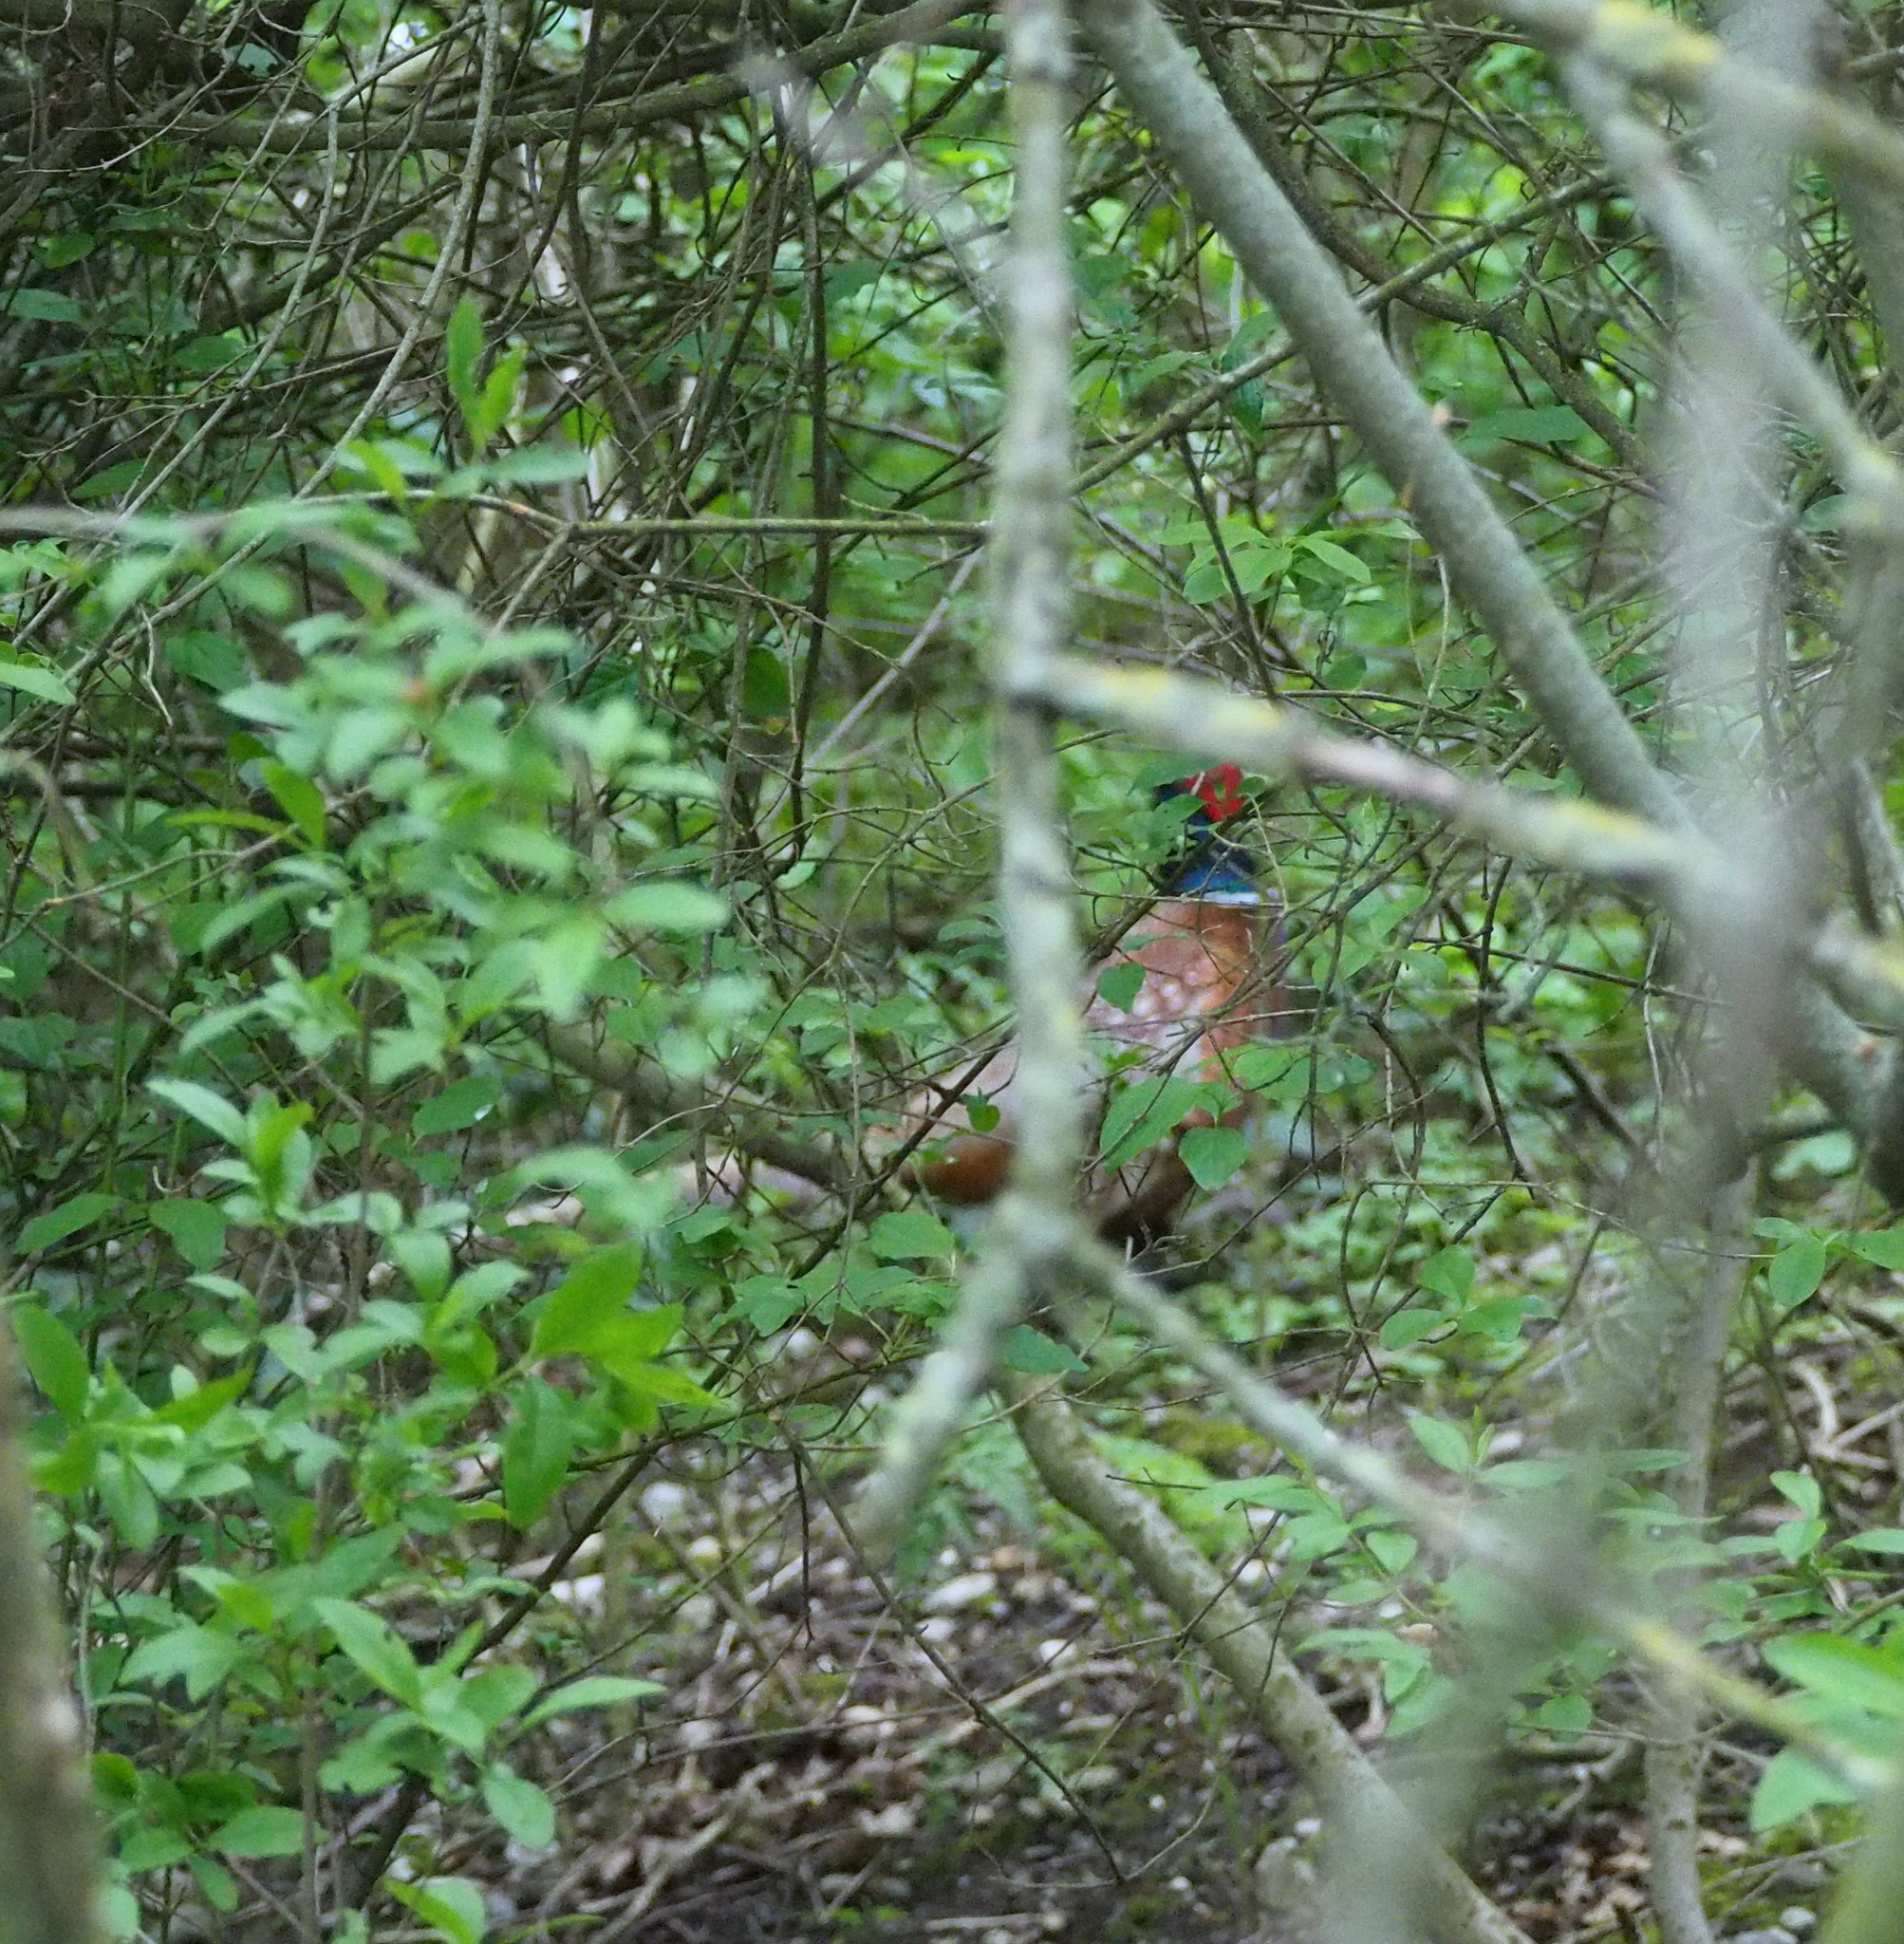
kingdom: Animalia
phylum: Chordata
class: Aves
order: Galliformes
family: Phasianidae
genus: Phasianus
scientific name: Phasianus colchicus
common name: Common pheasant
